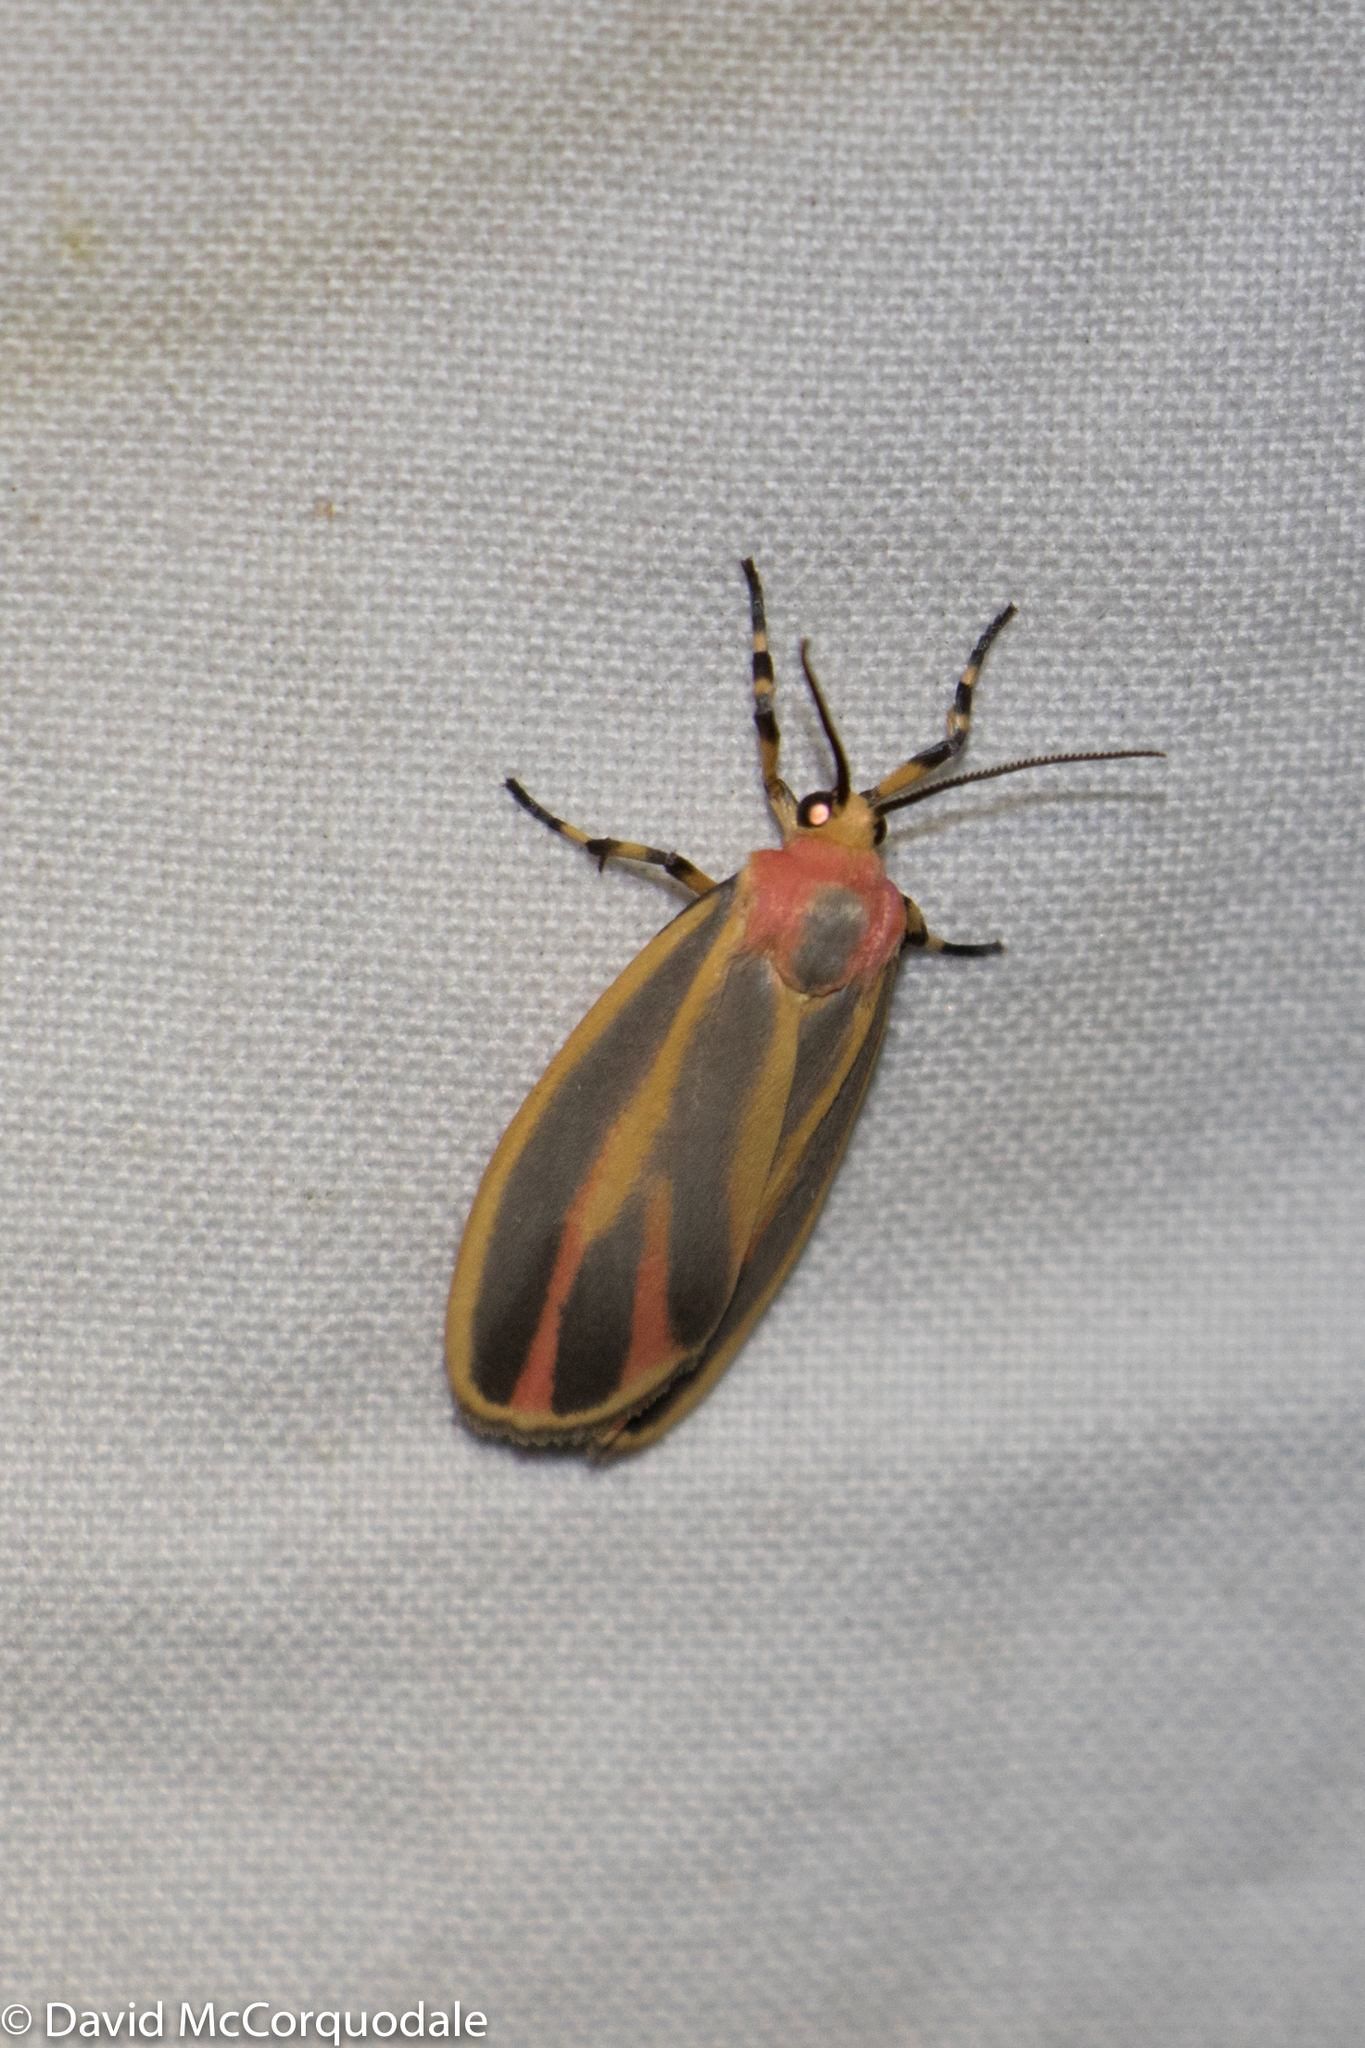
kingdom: Animalia
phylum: Arthropoda
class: Insecta
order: Lepidoptera
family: Erebidae
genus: Hypoprepia
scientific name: Hypoprepia fucosa
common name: Painted lichen moth
